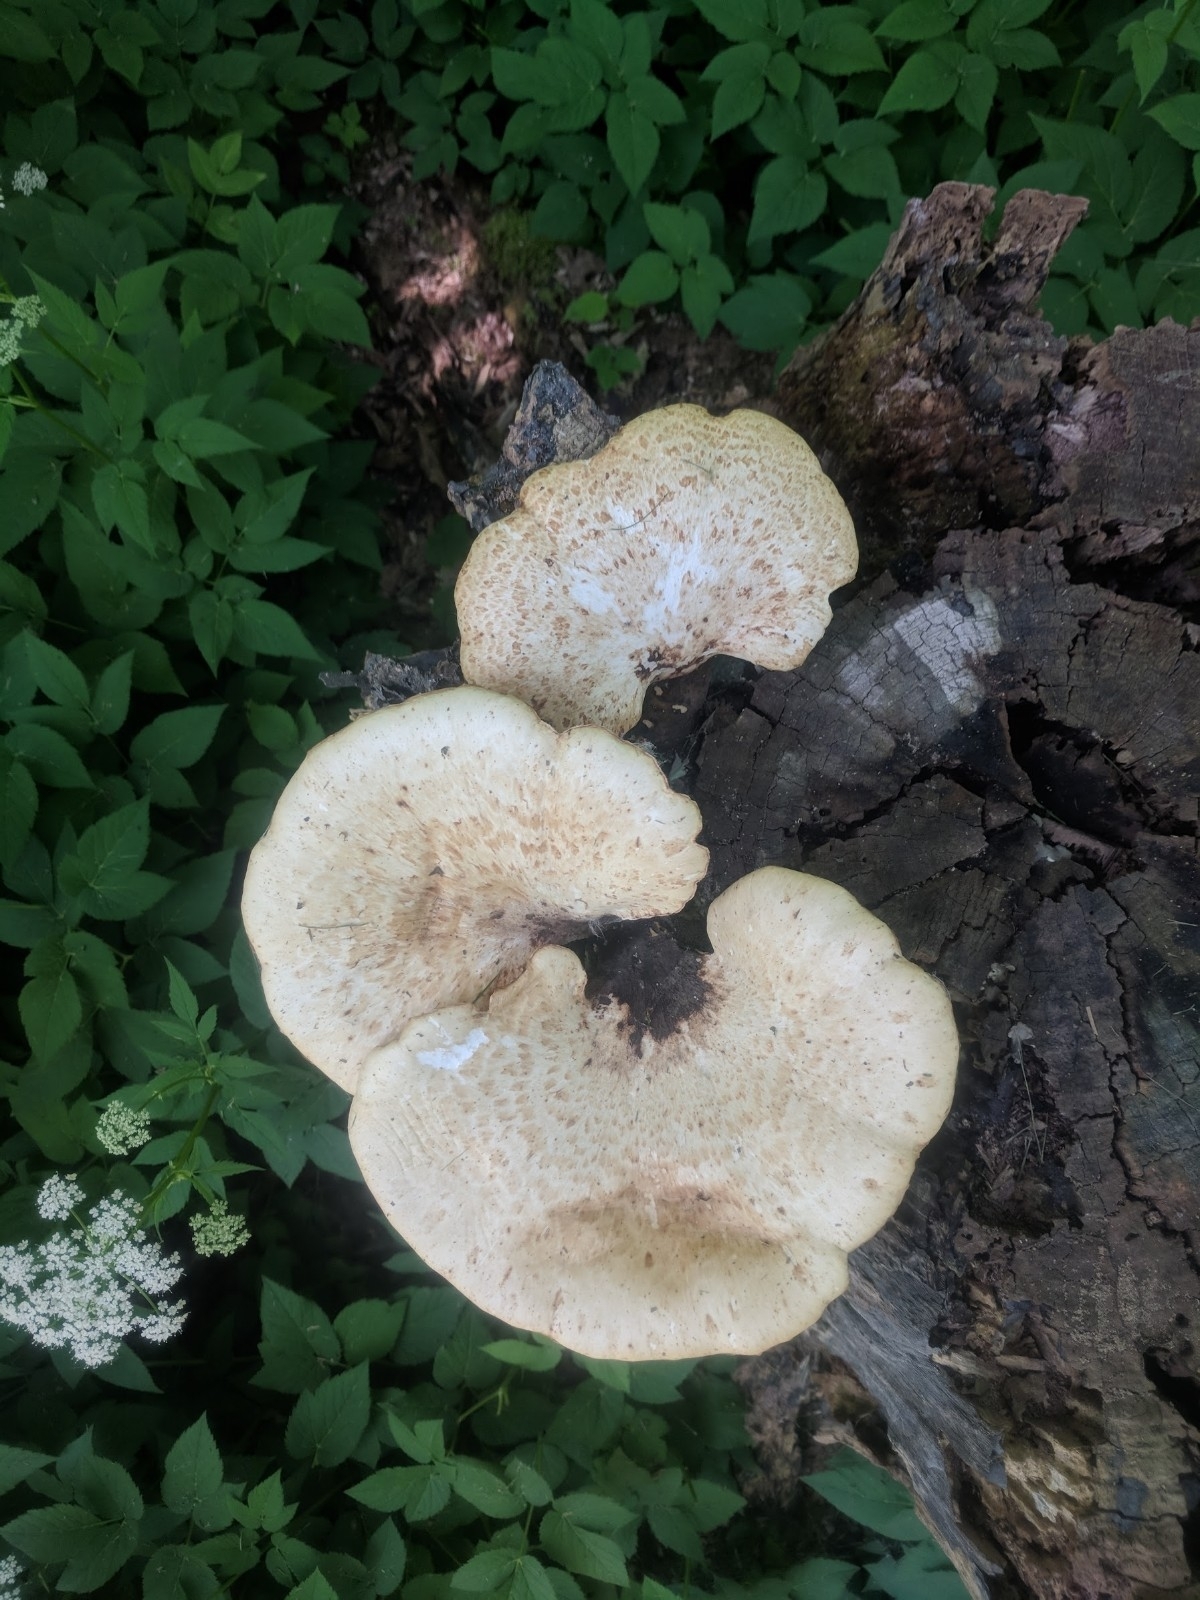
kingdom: Fungi
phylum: Basidiomycota
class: Agaricomycetes
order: Polyporales
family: Polyporaceae
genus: Cerioporus
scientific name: Cerioporus squamosus
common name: Dryad's saddle
